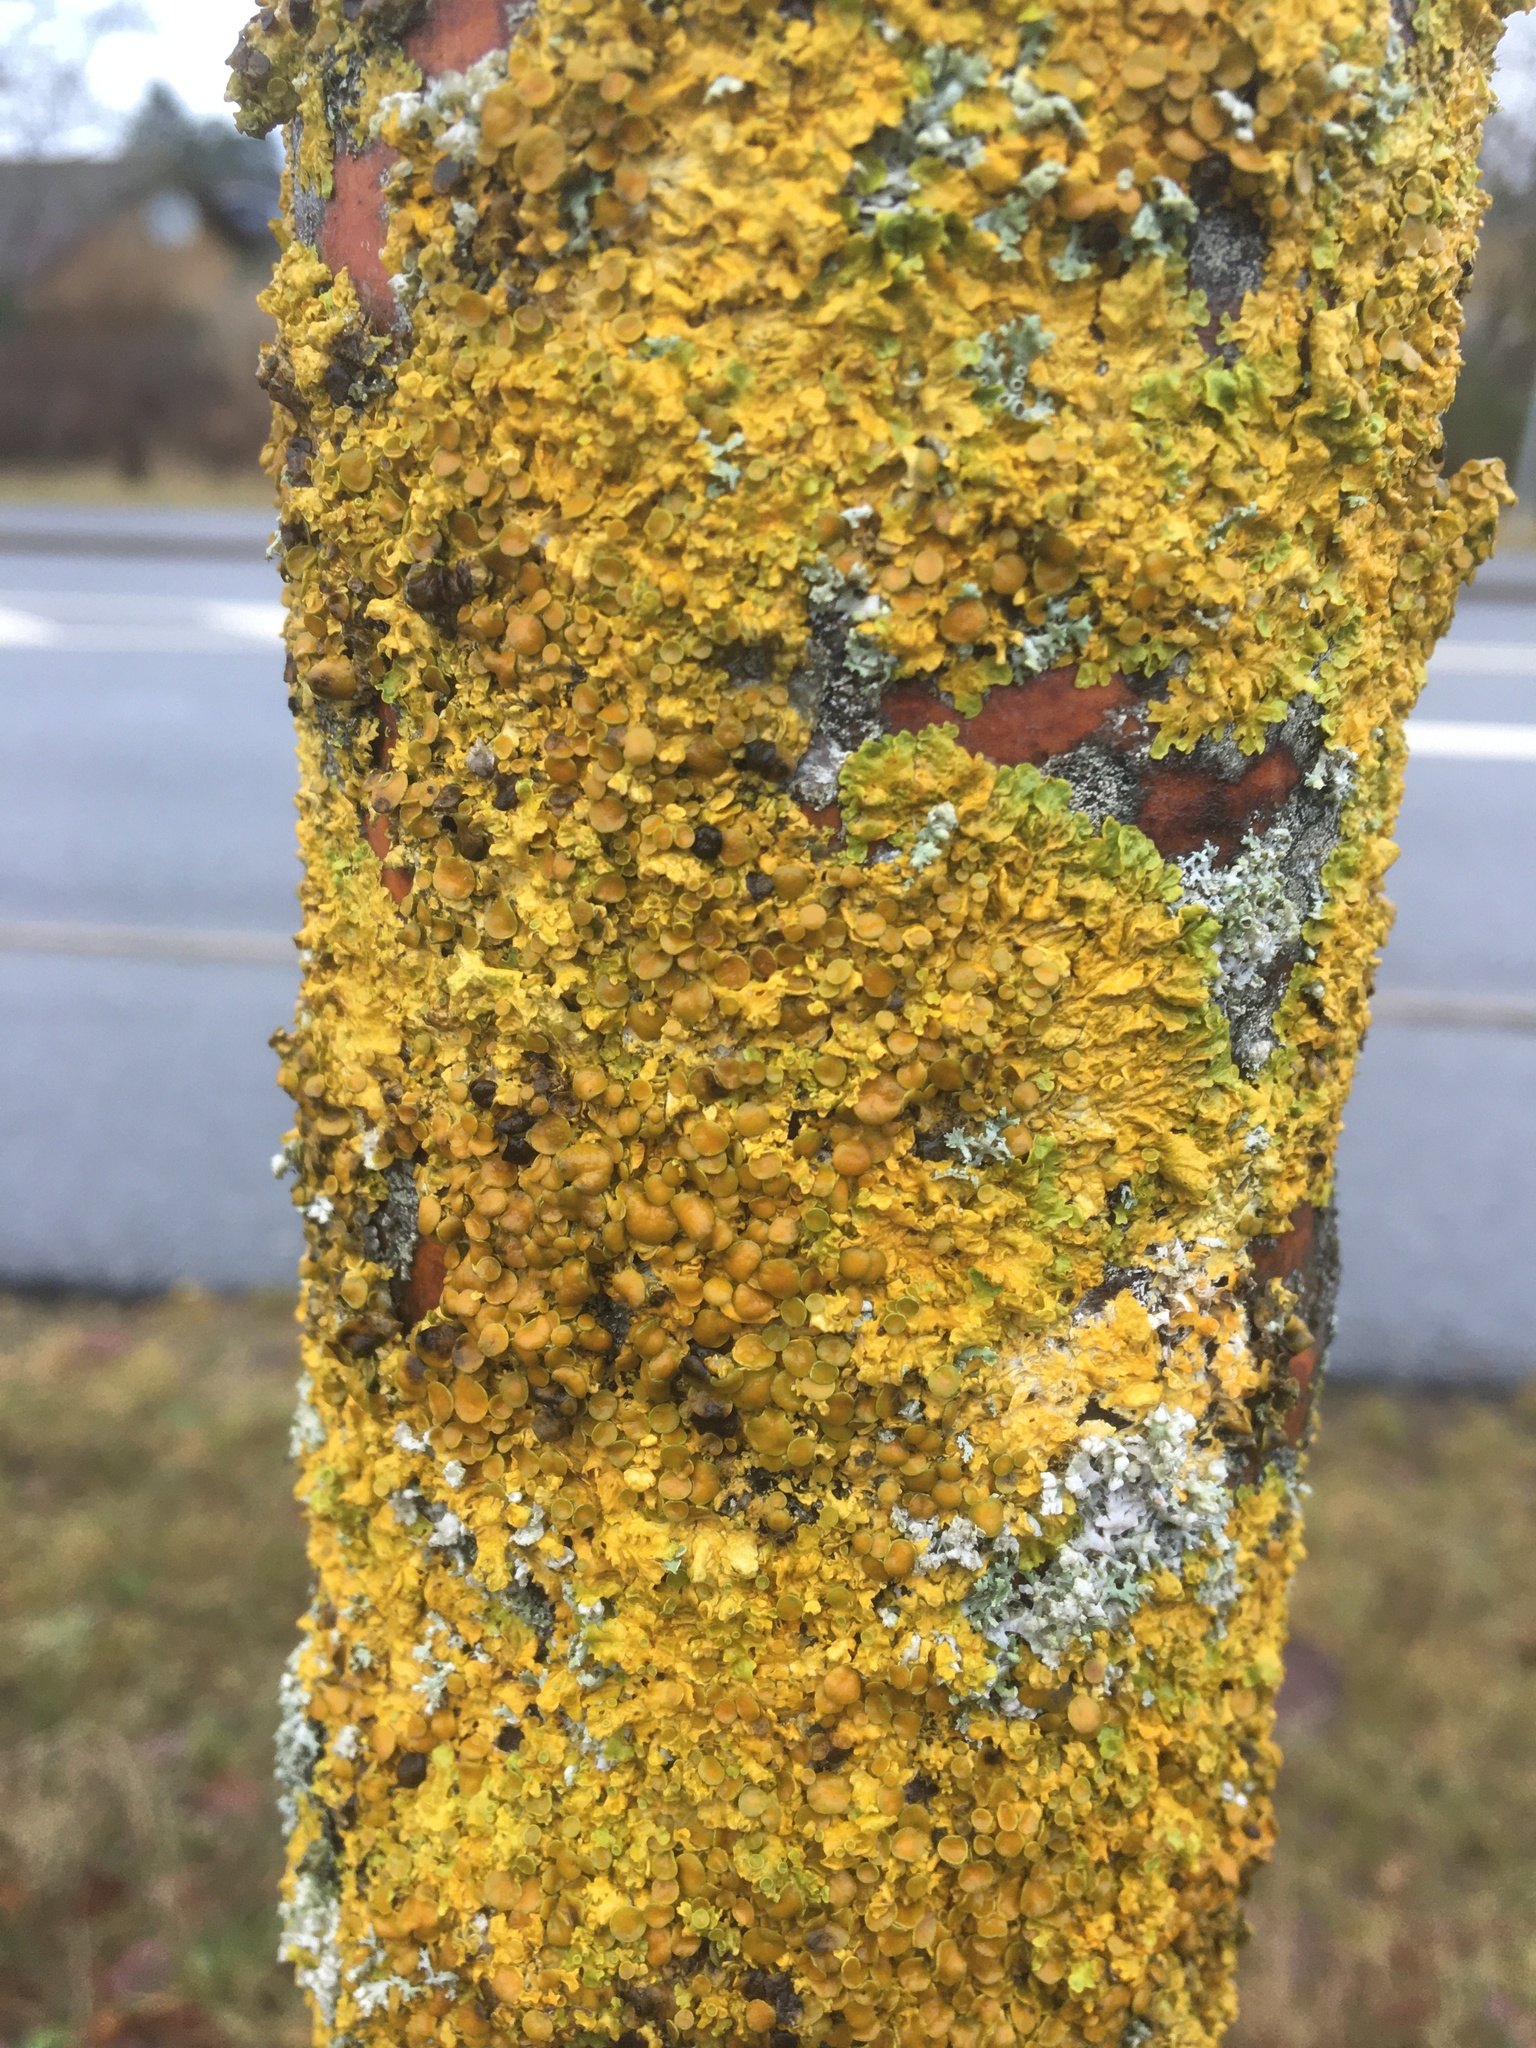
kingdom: Fungi
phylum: Ascomycota
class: Lecanoromycetes
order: Teloschistales
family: Teloschistaceae
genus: Xanthoria
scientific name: Xanthoria parietina
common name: Common orange lichen
